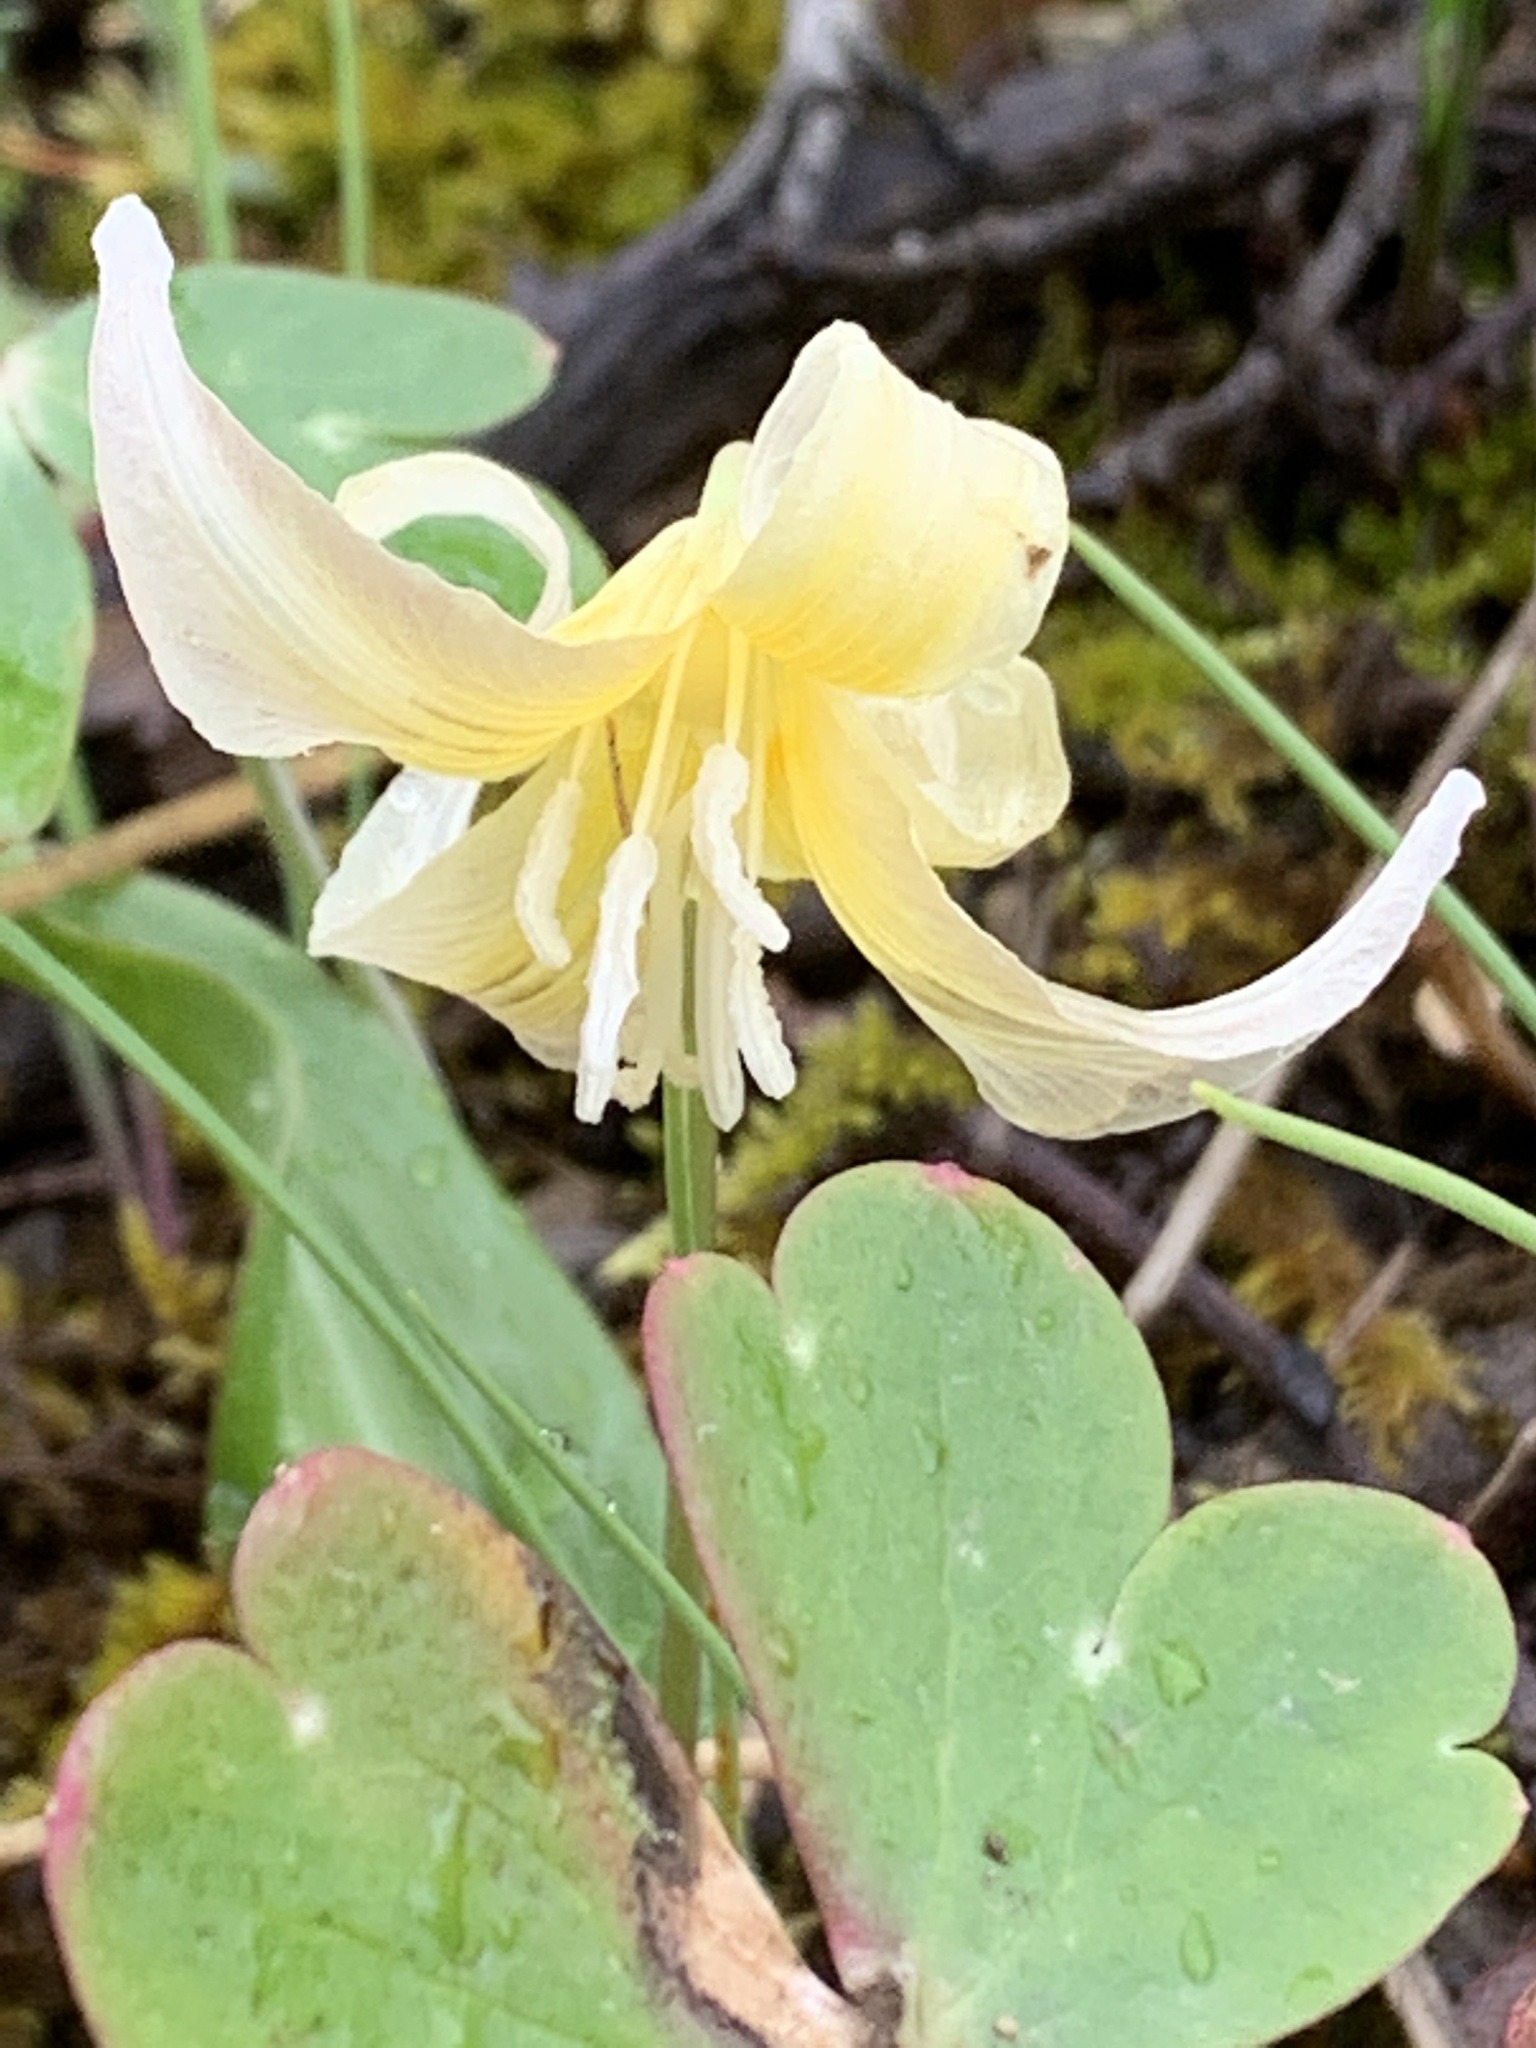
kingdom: Plantae
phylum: Tracheophyta
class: Liliopsida
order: Liliales
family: Liliaceae
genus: Erythronium
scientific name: Erythronium californicum
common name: Fawn-lily
